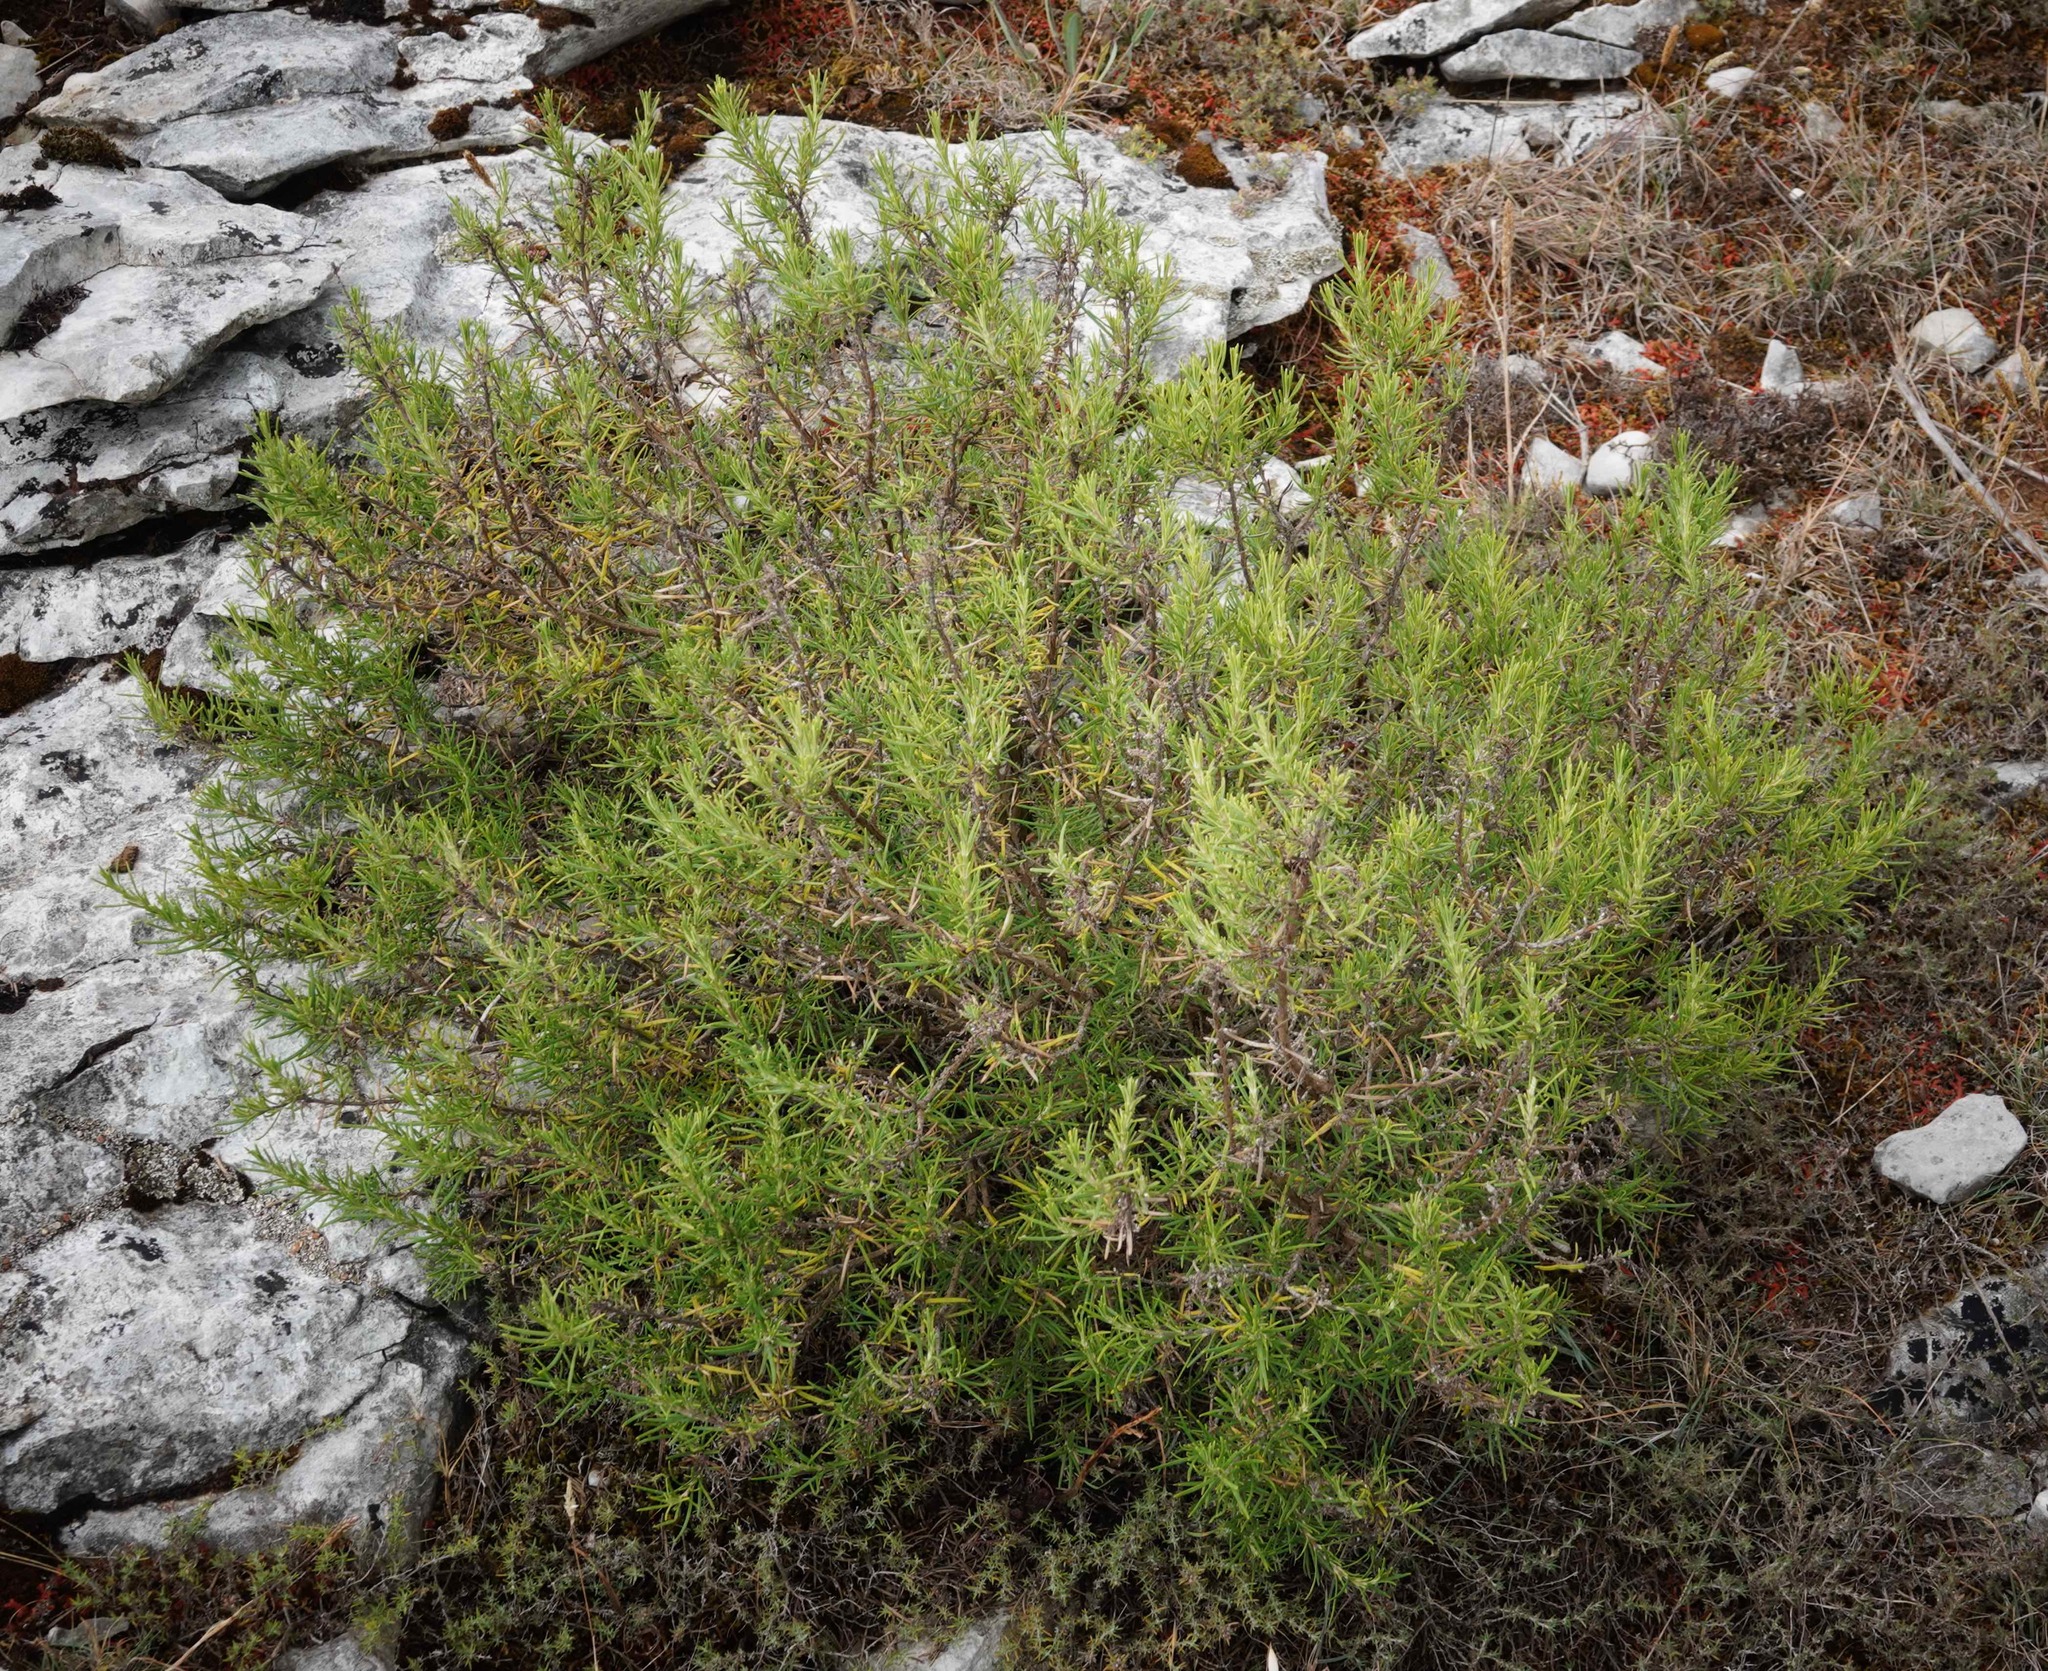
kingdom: Plantae
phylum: Tracheophyta
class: Magnoliopsida
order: Lamiales
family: Lamiaceae
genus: Salvia
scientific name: Salvia rosmarinus
